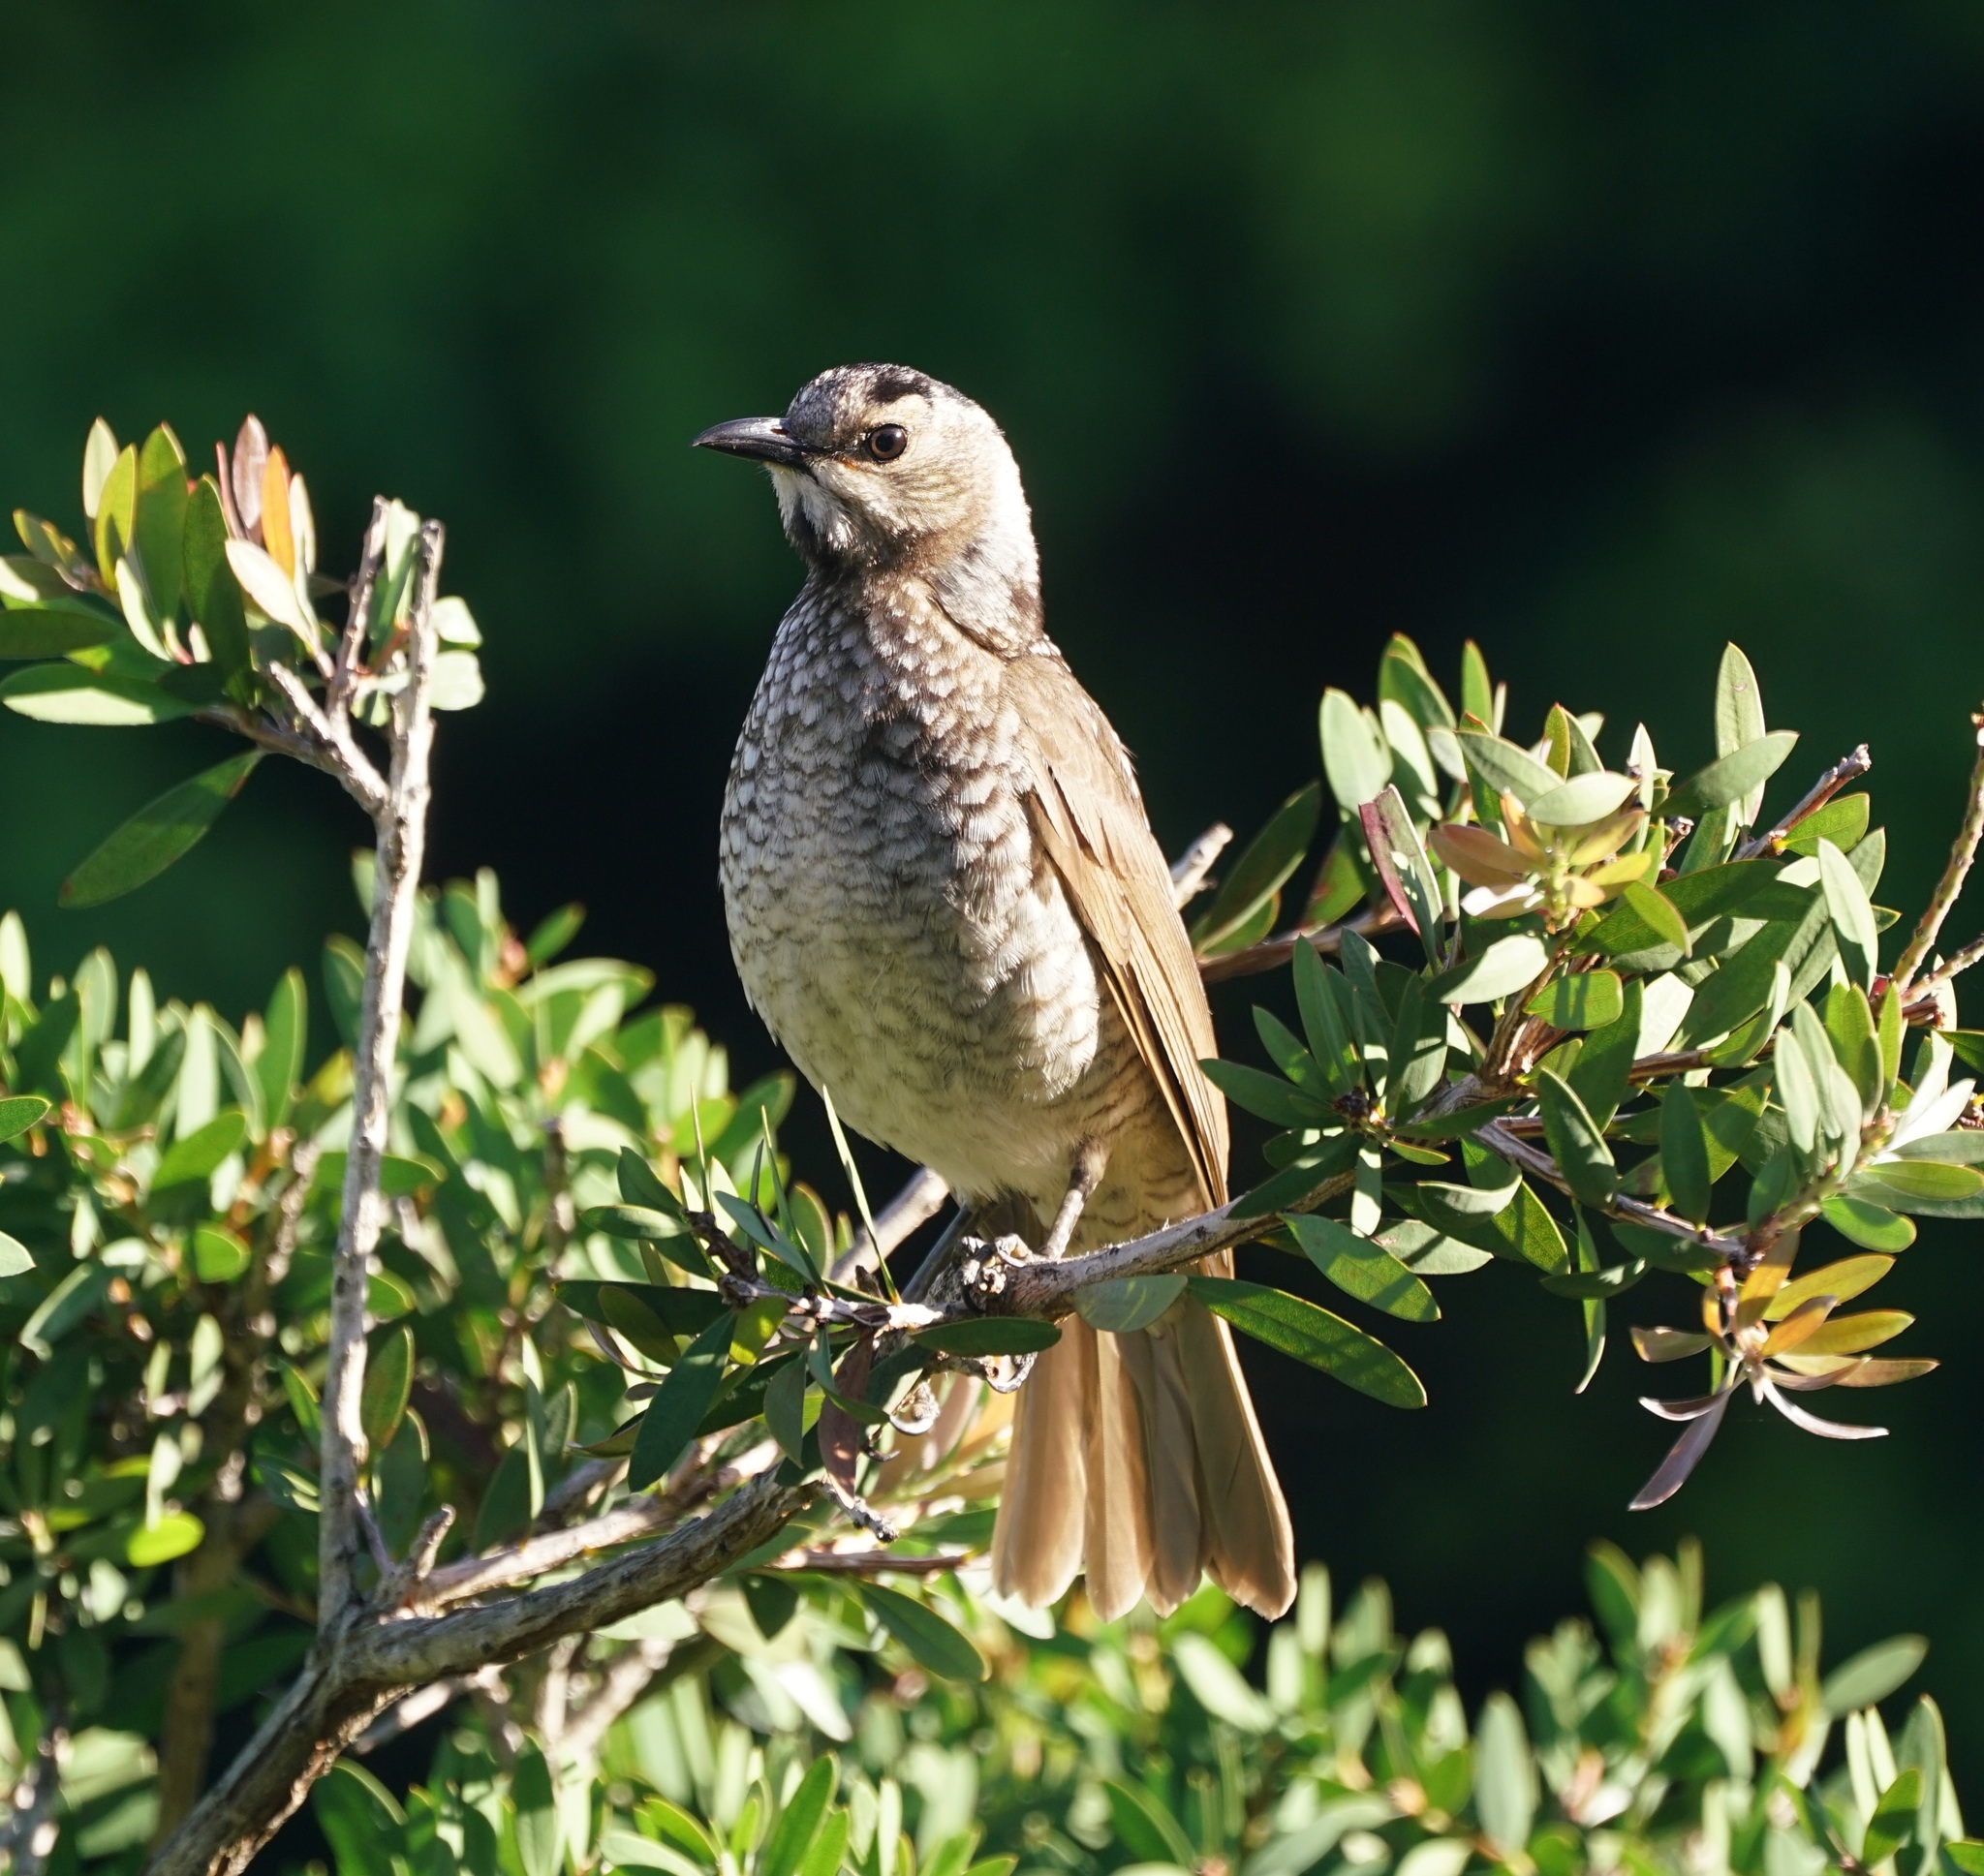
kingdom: Animalia
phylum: Chordata
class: Aves
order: Passeriformes
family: Ptilonorhynchidae
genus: Sericulus
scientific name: Sericulus chrysocephalus
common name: Regent bowerbird
